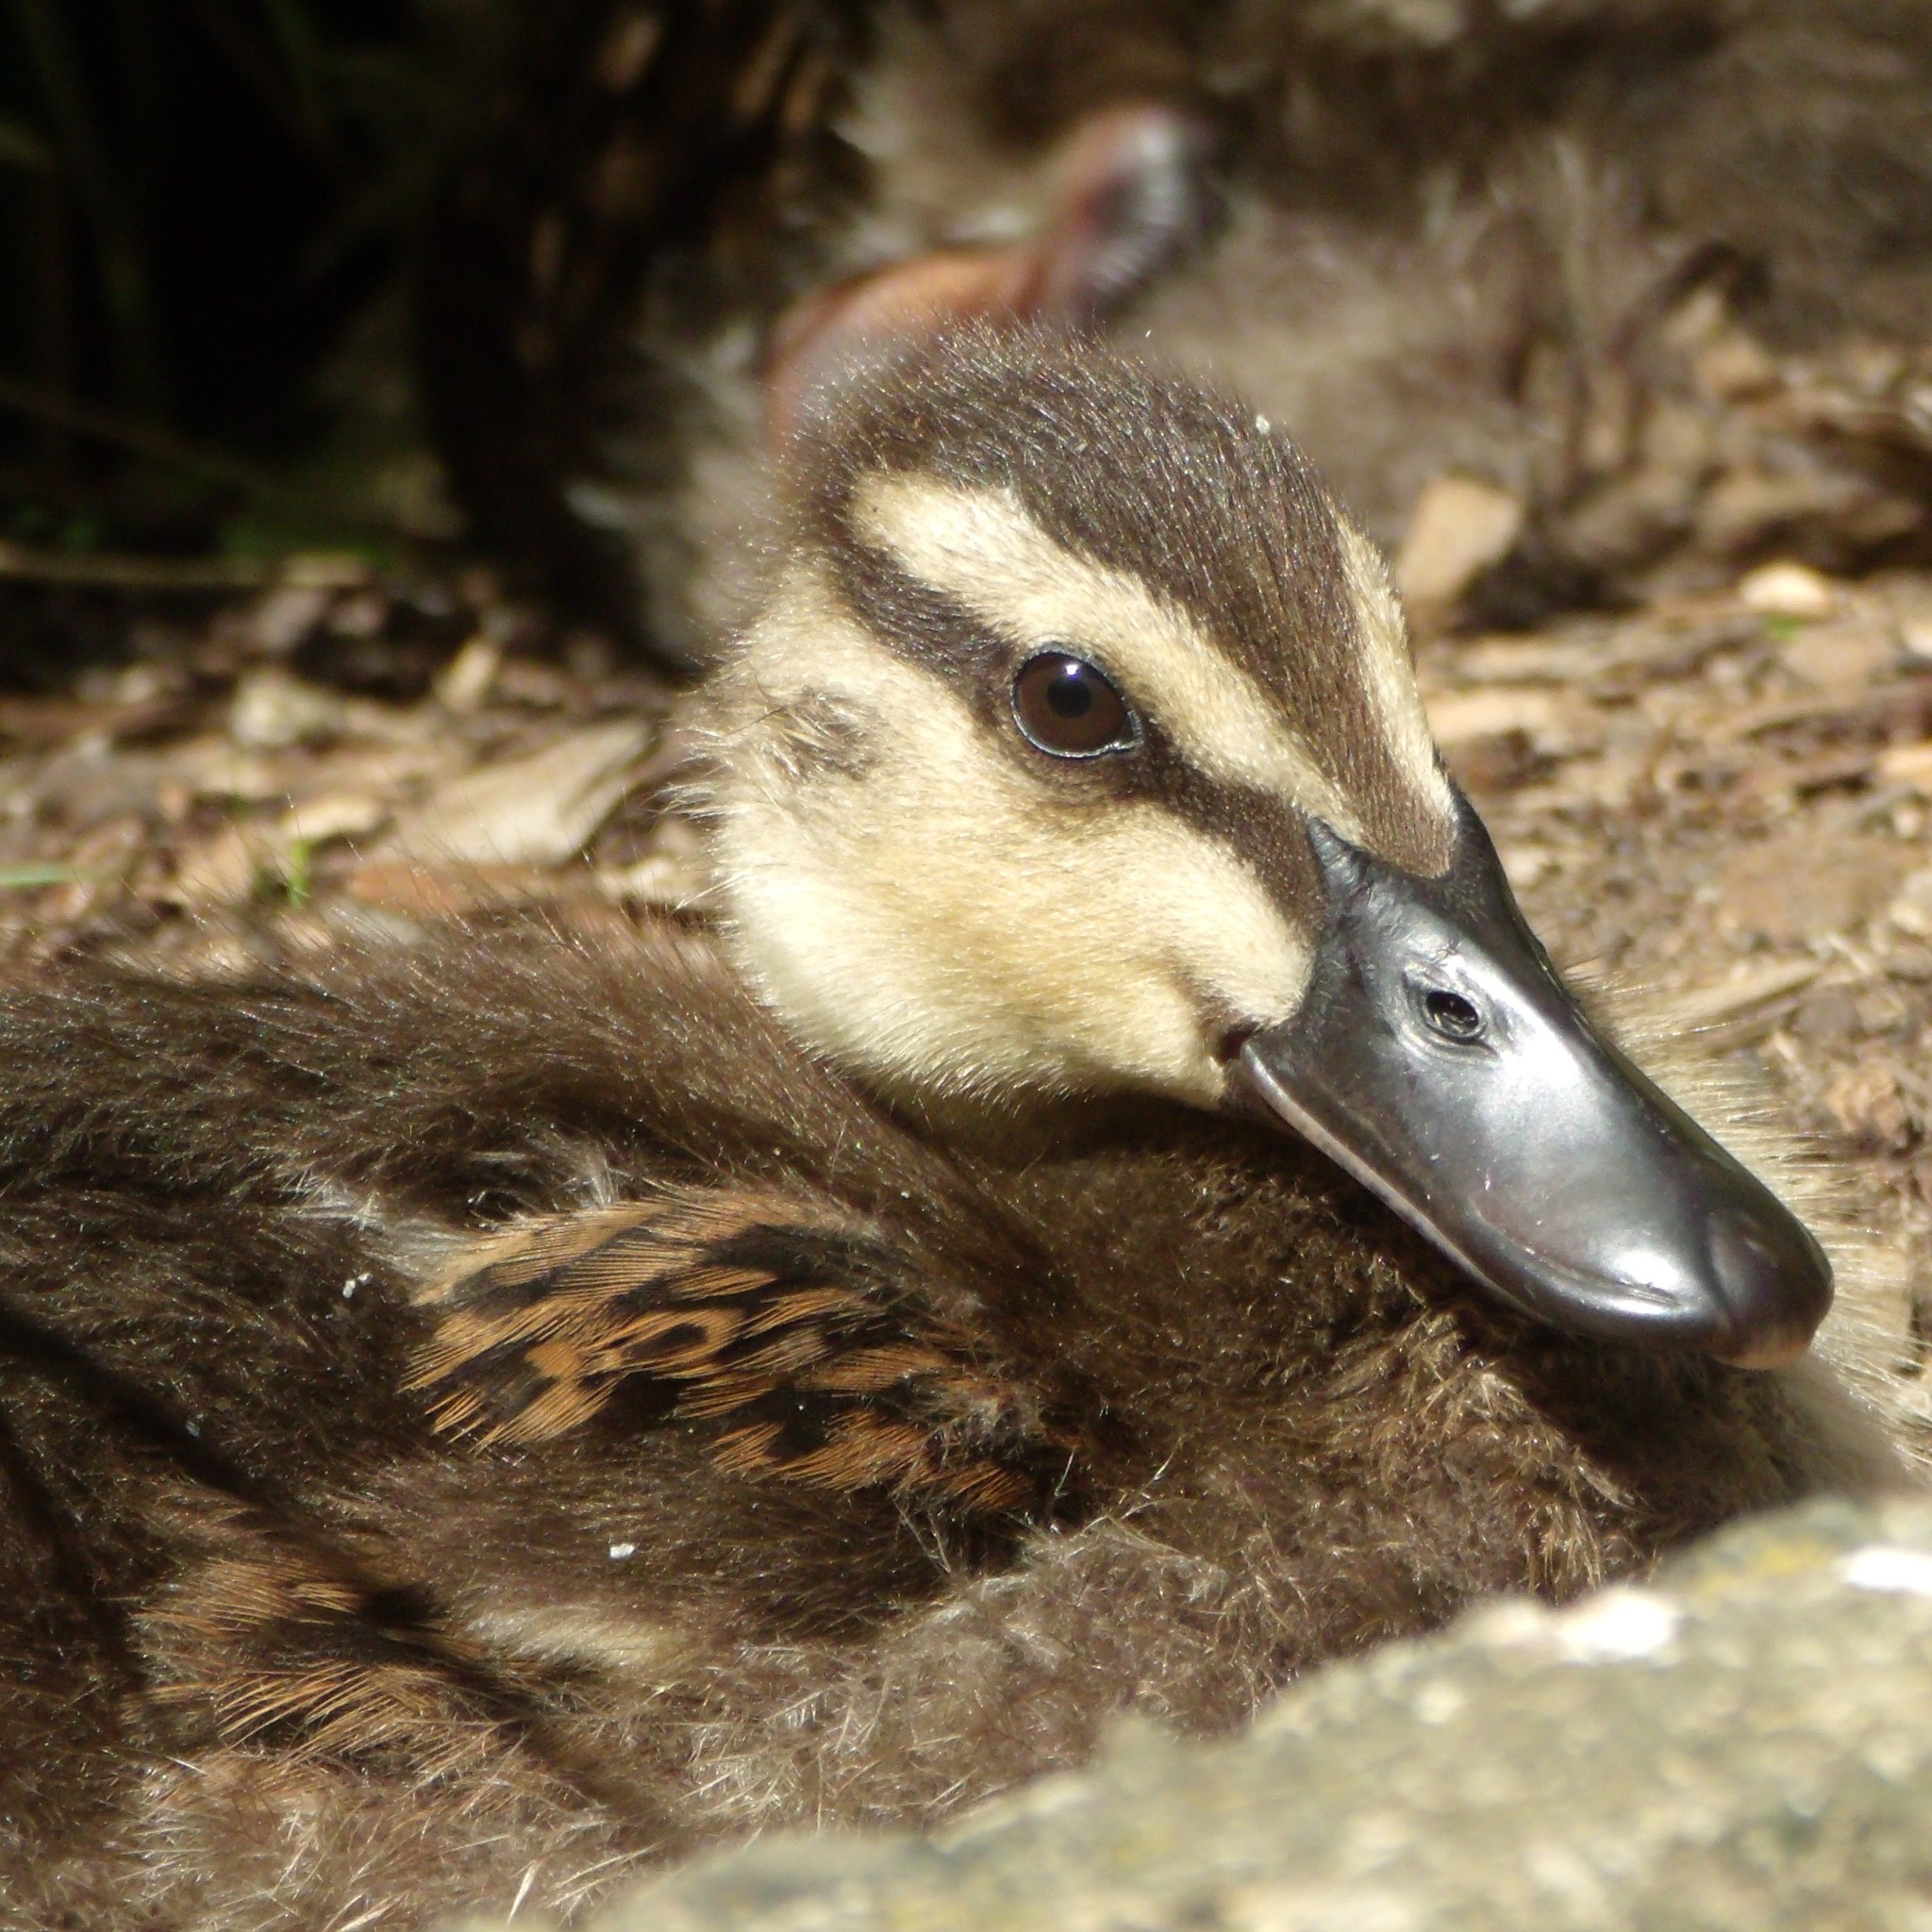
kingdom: Animalia
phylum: Chordata
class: Aves
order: Anseriformes
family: Anatidae
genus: Anas
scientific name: Anas
